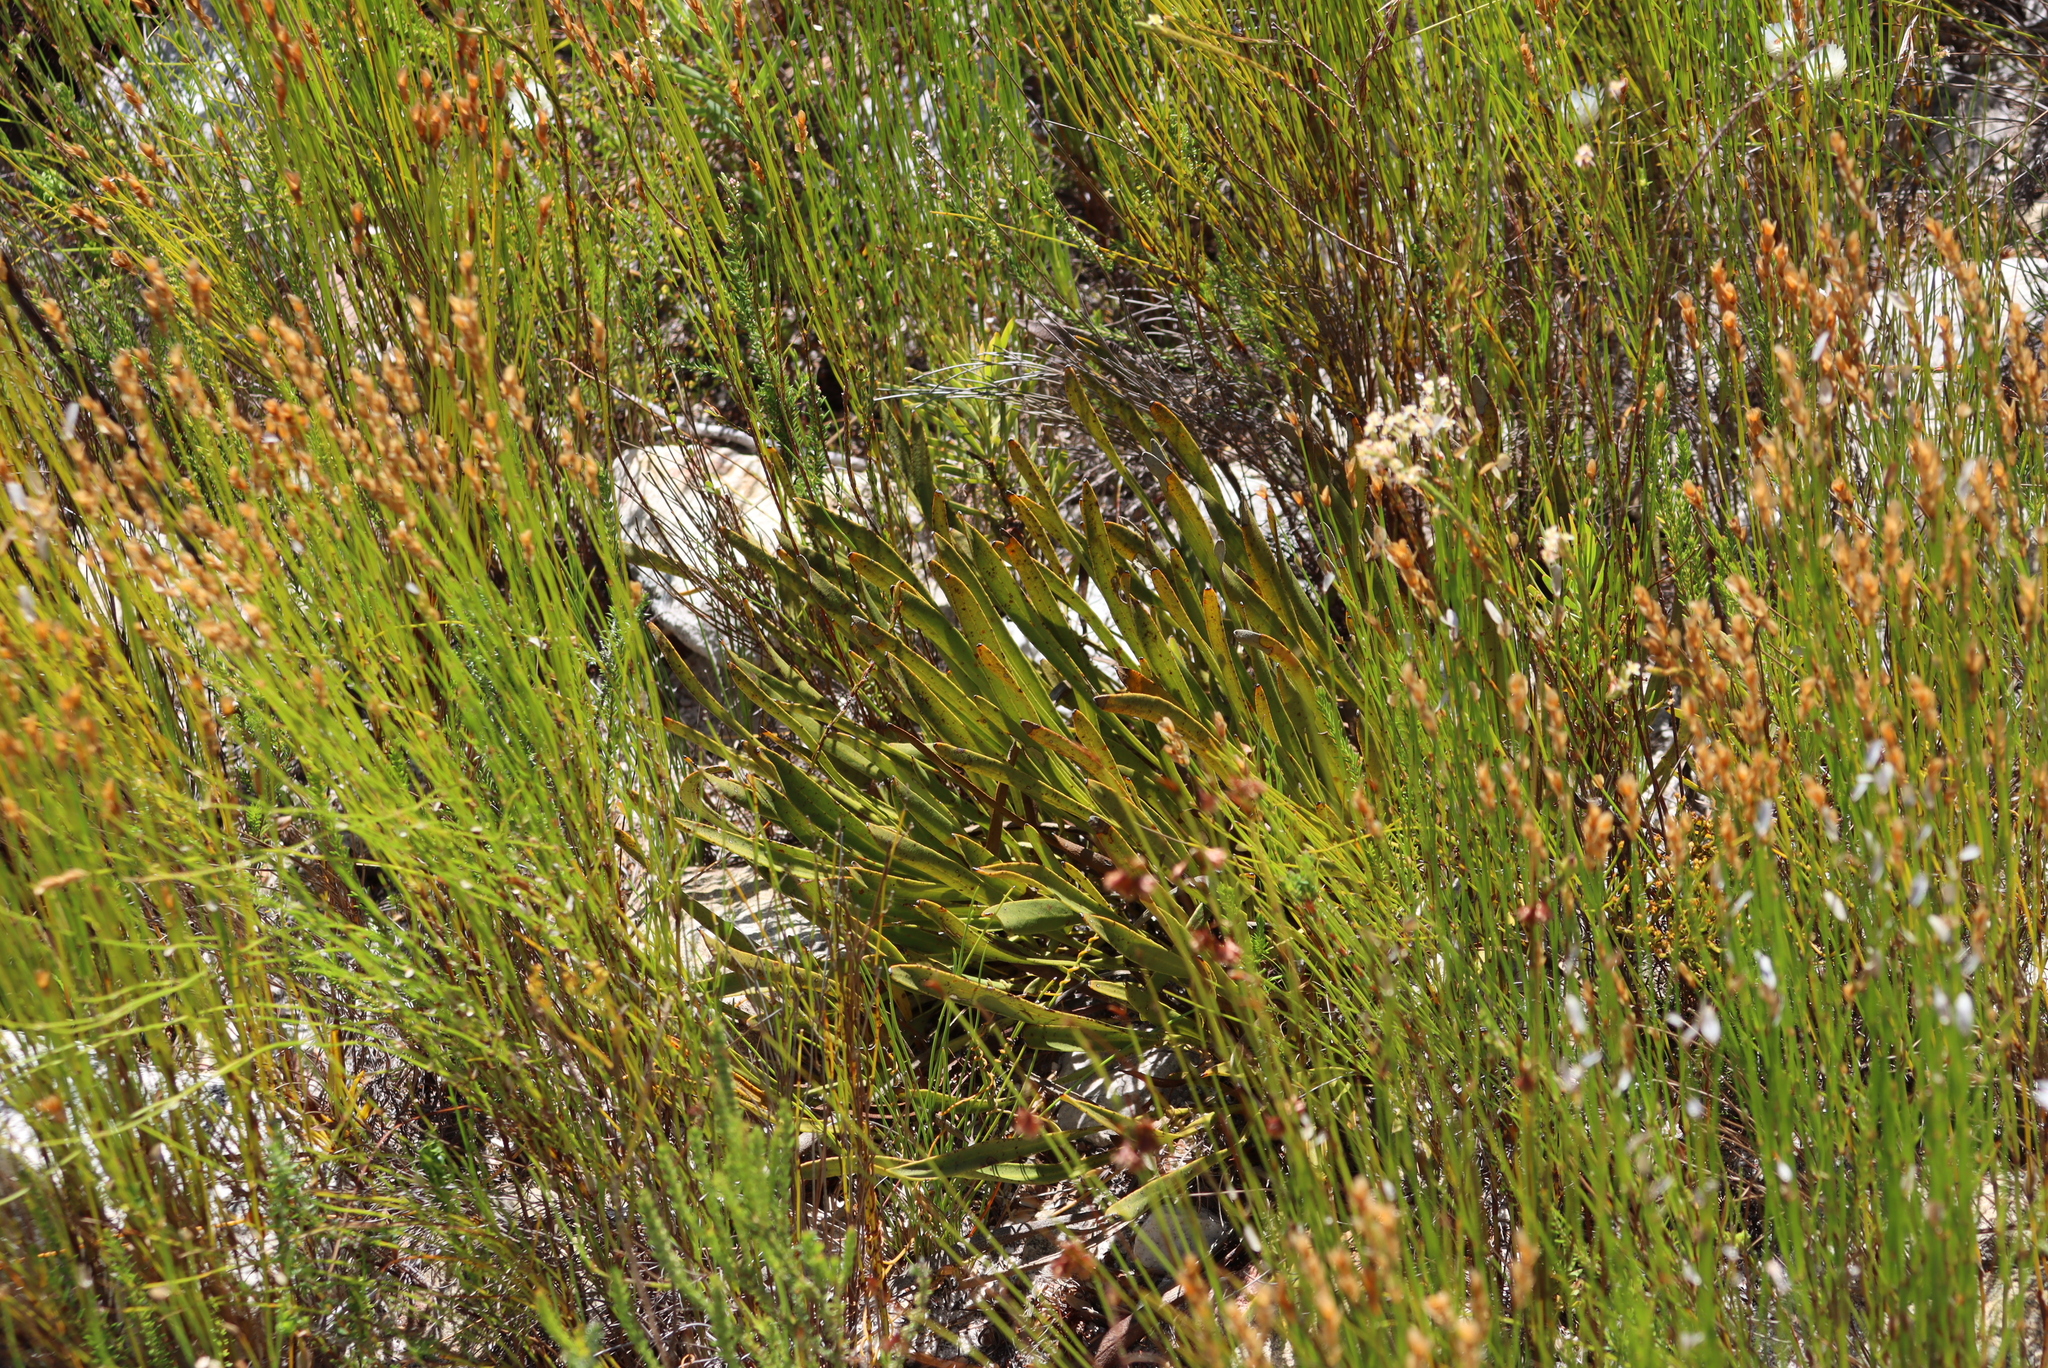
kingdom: Plantae
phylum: Tracheophyta
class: Magnoliopsida
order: Proteales
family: Proteaceae
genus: Protea
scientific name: Protea scabra
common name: Sandpaper-leaf sugarbush
